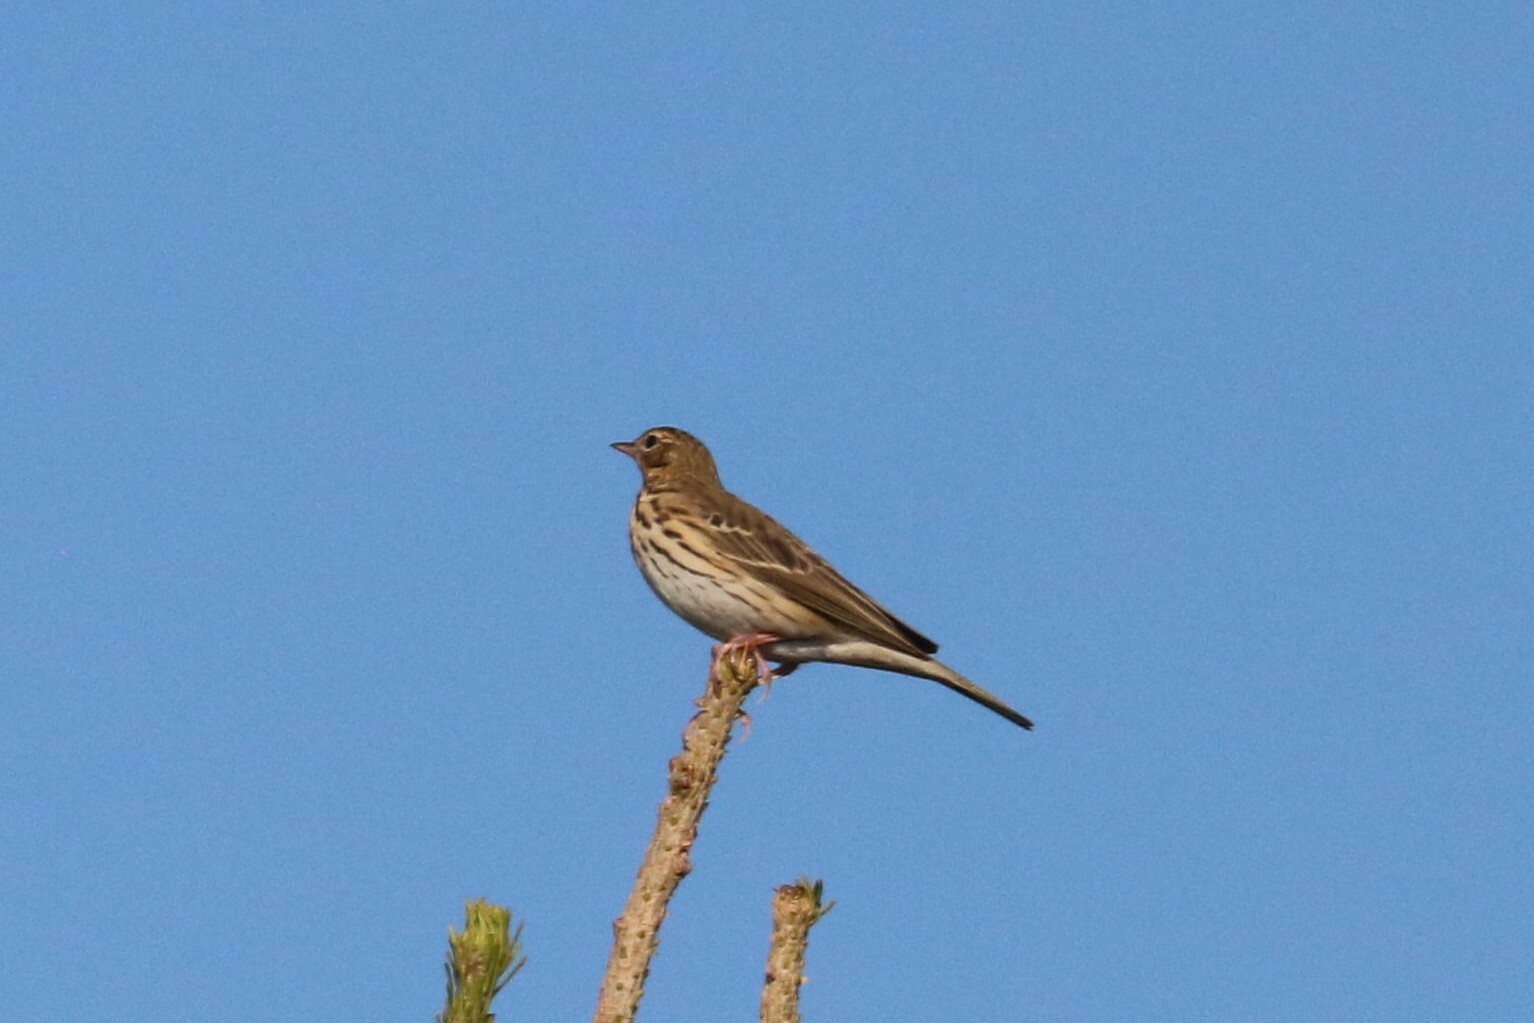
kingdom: Animalia
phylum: Chordata
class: Aves
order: Passeriformes
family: Motacillidae
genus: Anthus
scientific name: Anthus trivialis
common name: Tree pipit
